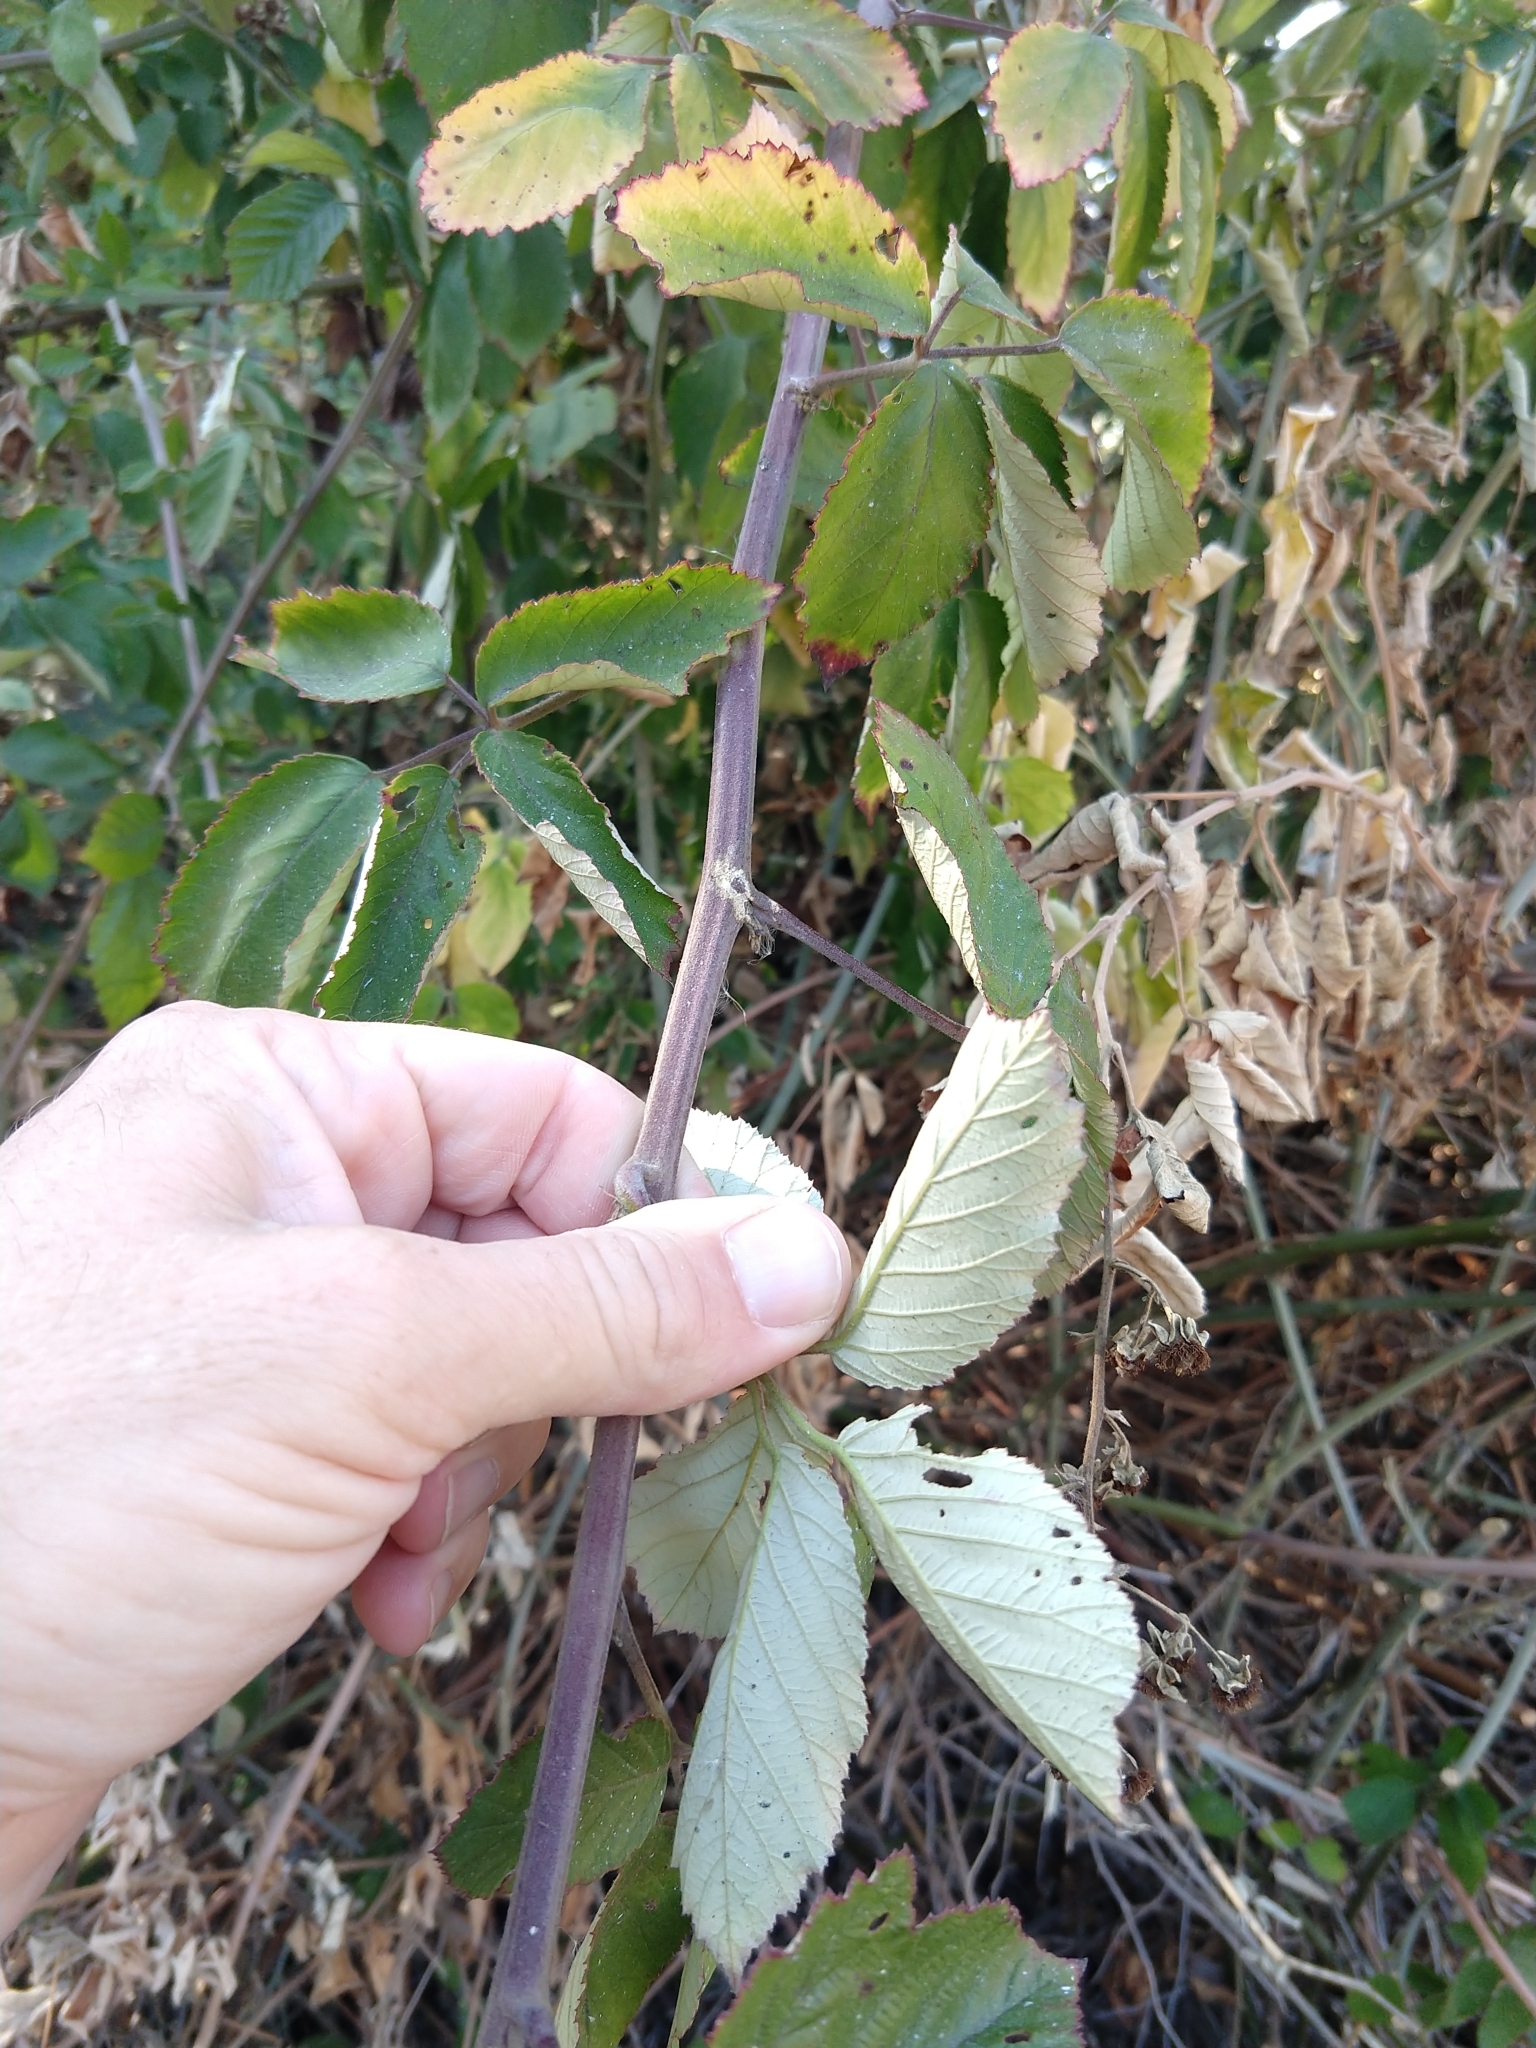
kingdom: Plantae
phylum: Tracheophyta
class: Magnoliopsida
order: Rosales
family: Rosaceae
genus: Rubus
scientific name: Rubus ulmifolius
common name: Elmleaf blackberry
